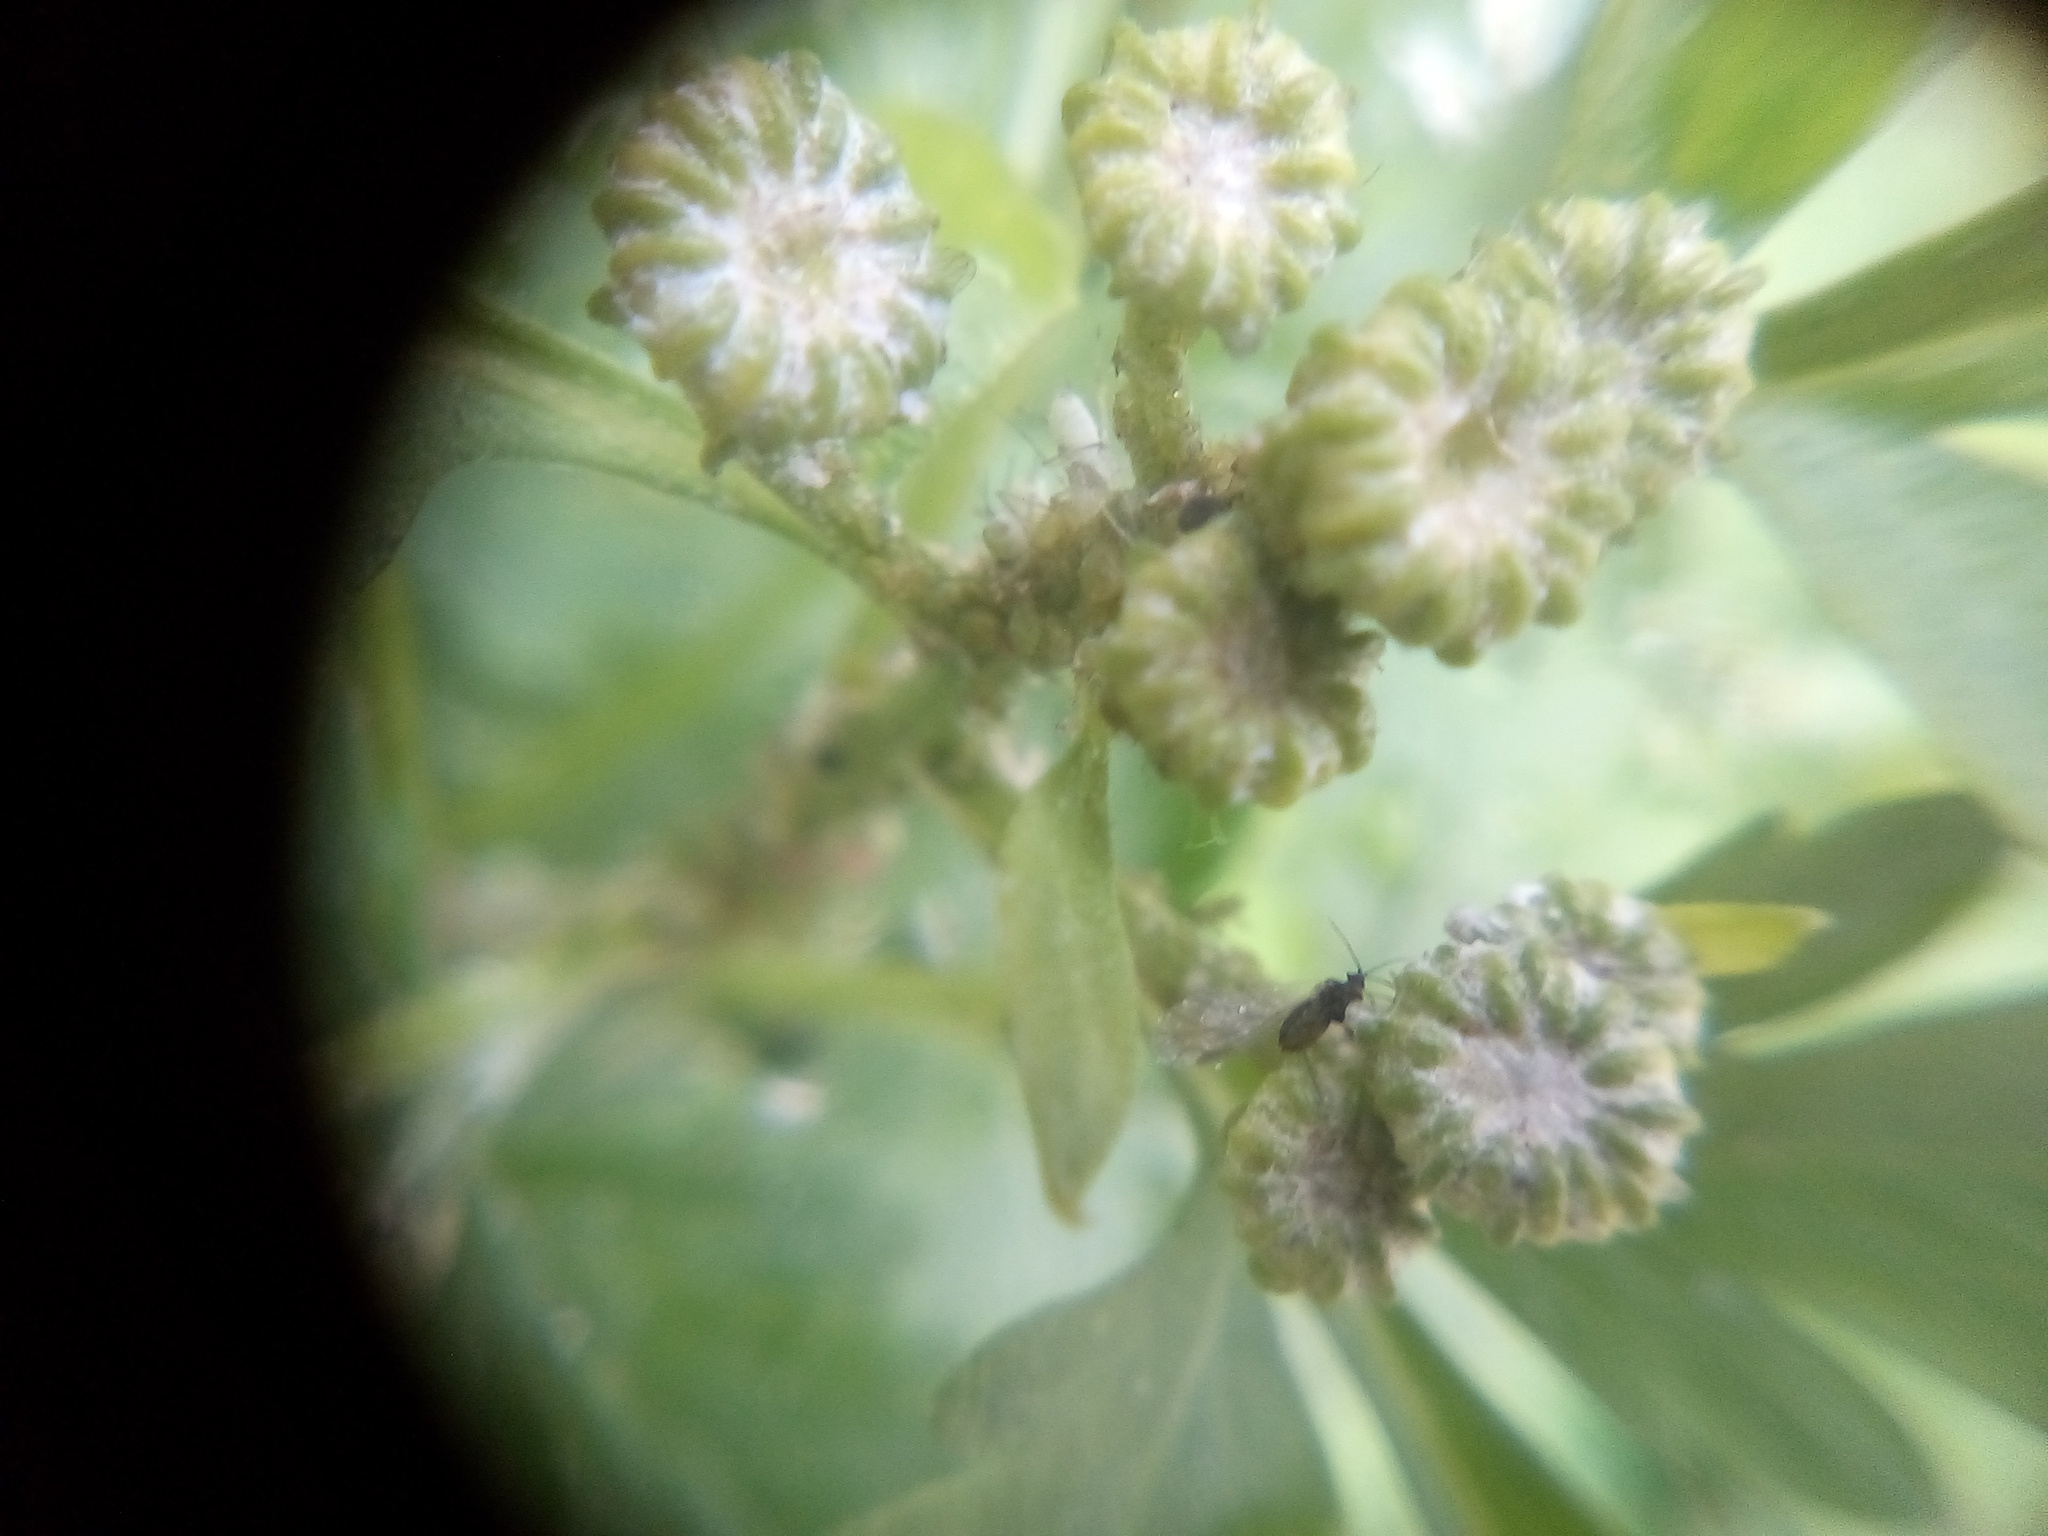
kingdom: Plantae
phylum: Tracheophyta
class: Magnoliopsida
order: Asterales
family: Asteraceae
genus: Tanacetum
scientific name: Tanacetum parthenium
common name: Feverfew
